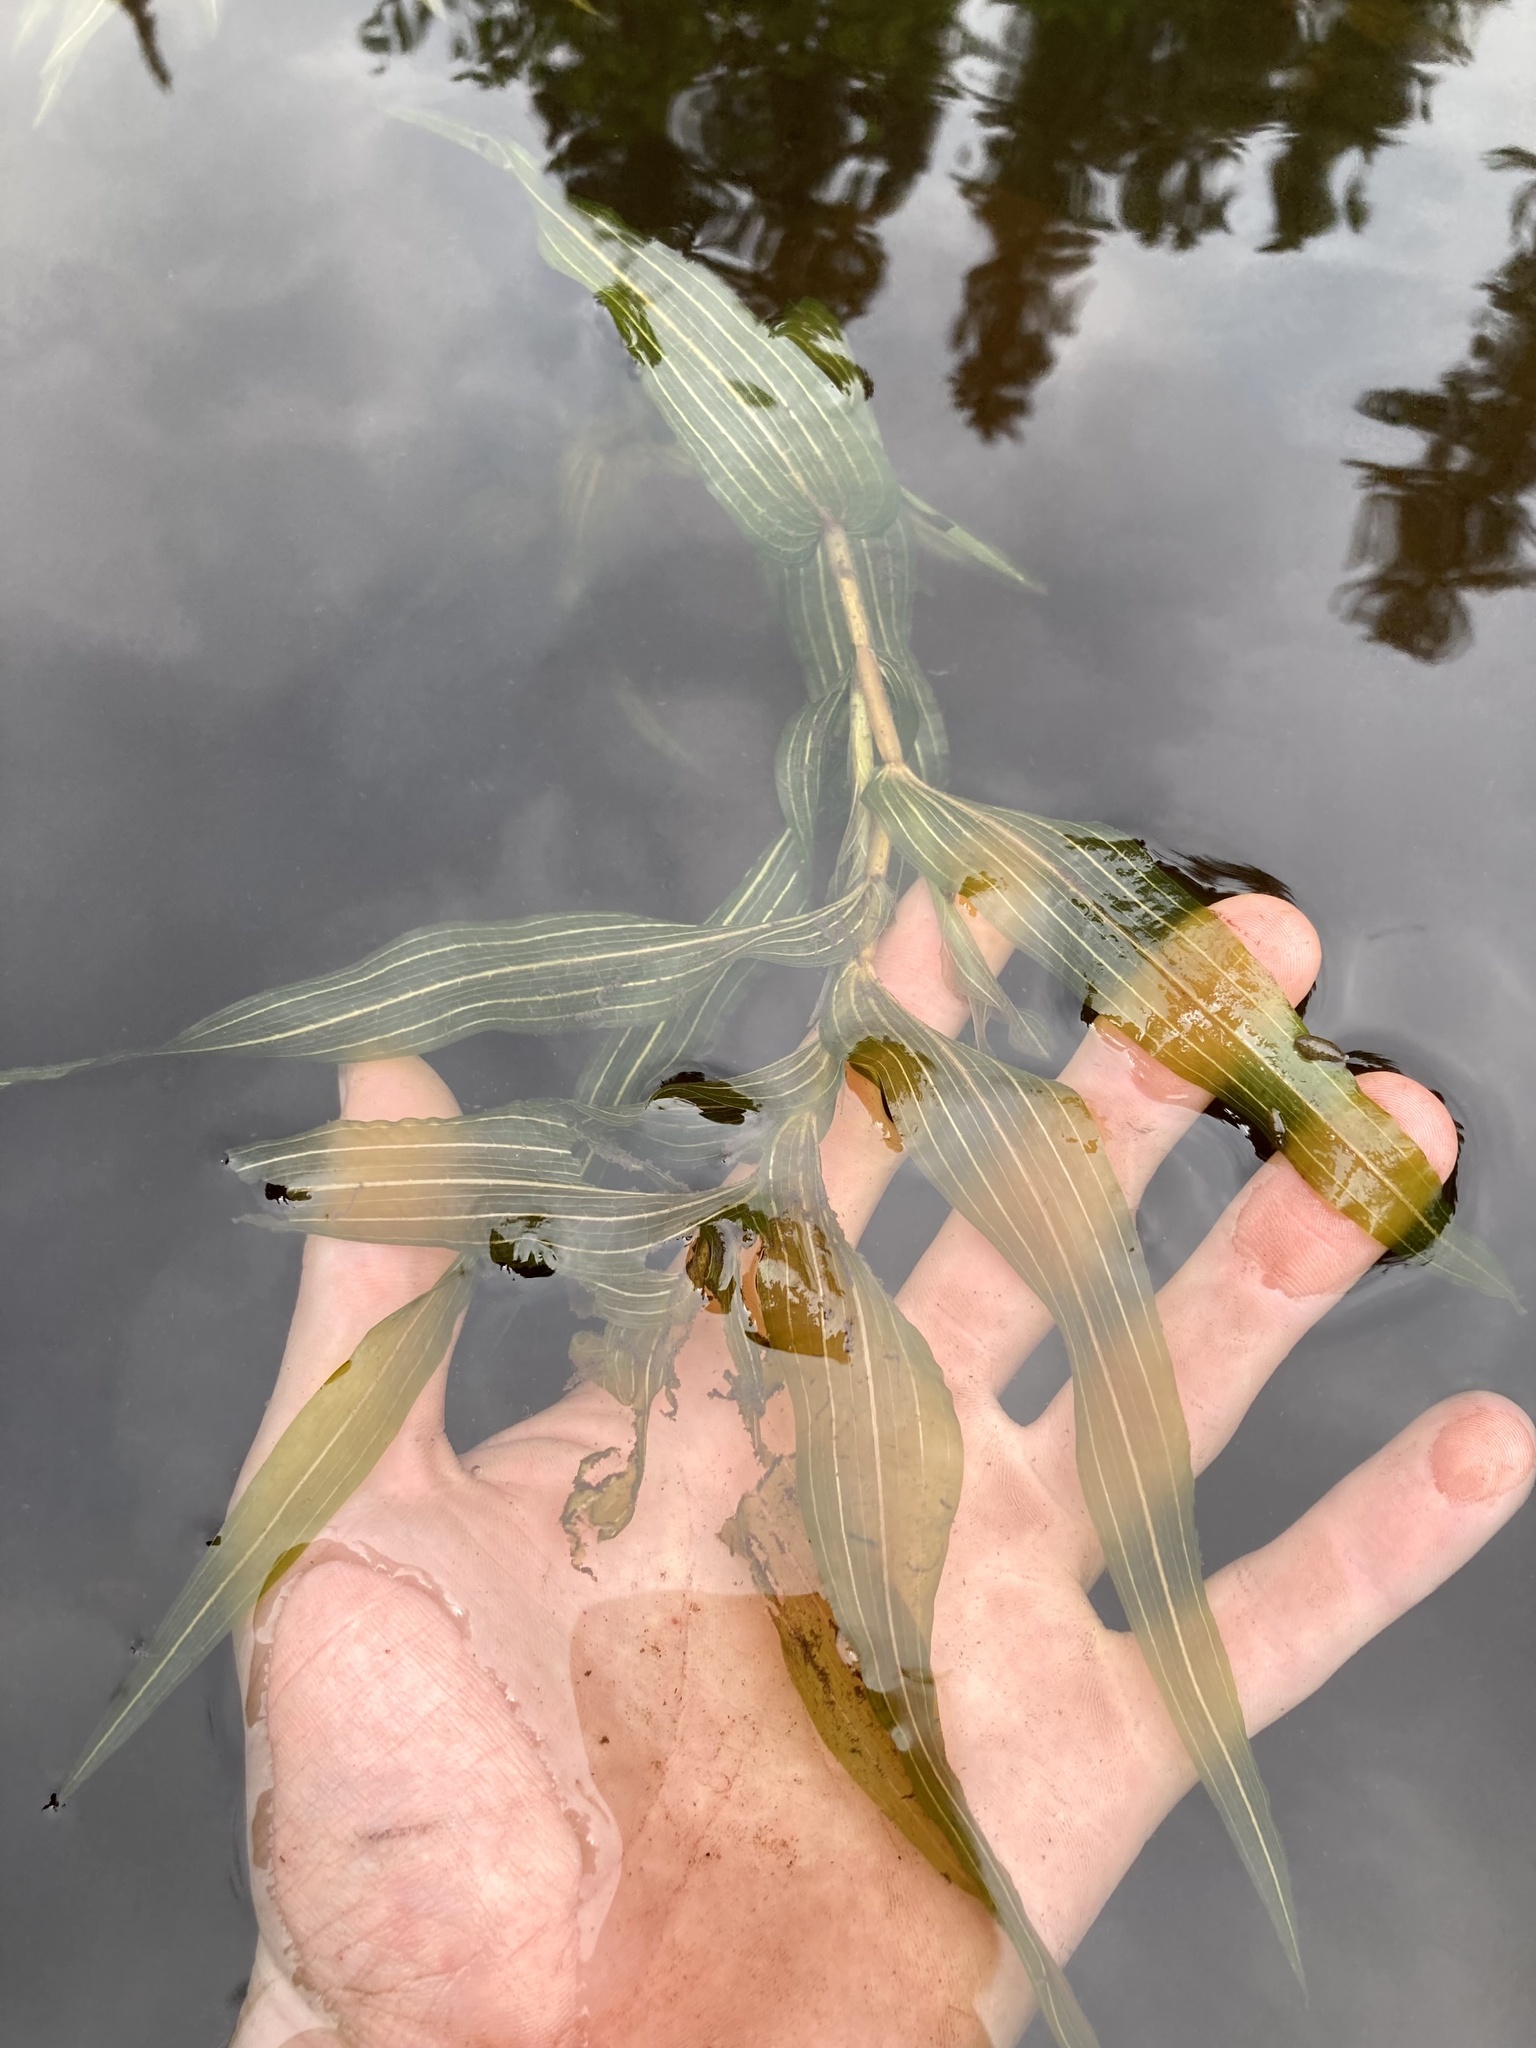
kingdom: Plantae
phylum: Tracheophyta
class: Liliopsida
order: Alismatales
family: Potamogetonaceae
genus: Potamogeton
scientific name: Potamogeton richardsonii
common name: Richardson's pondweed
